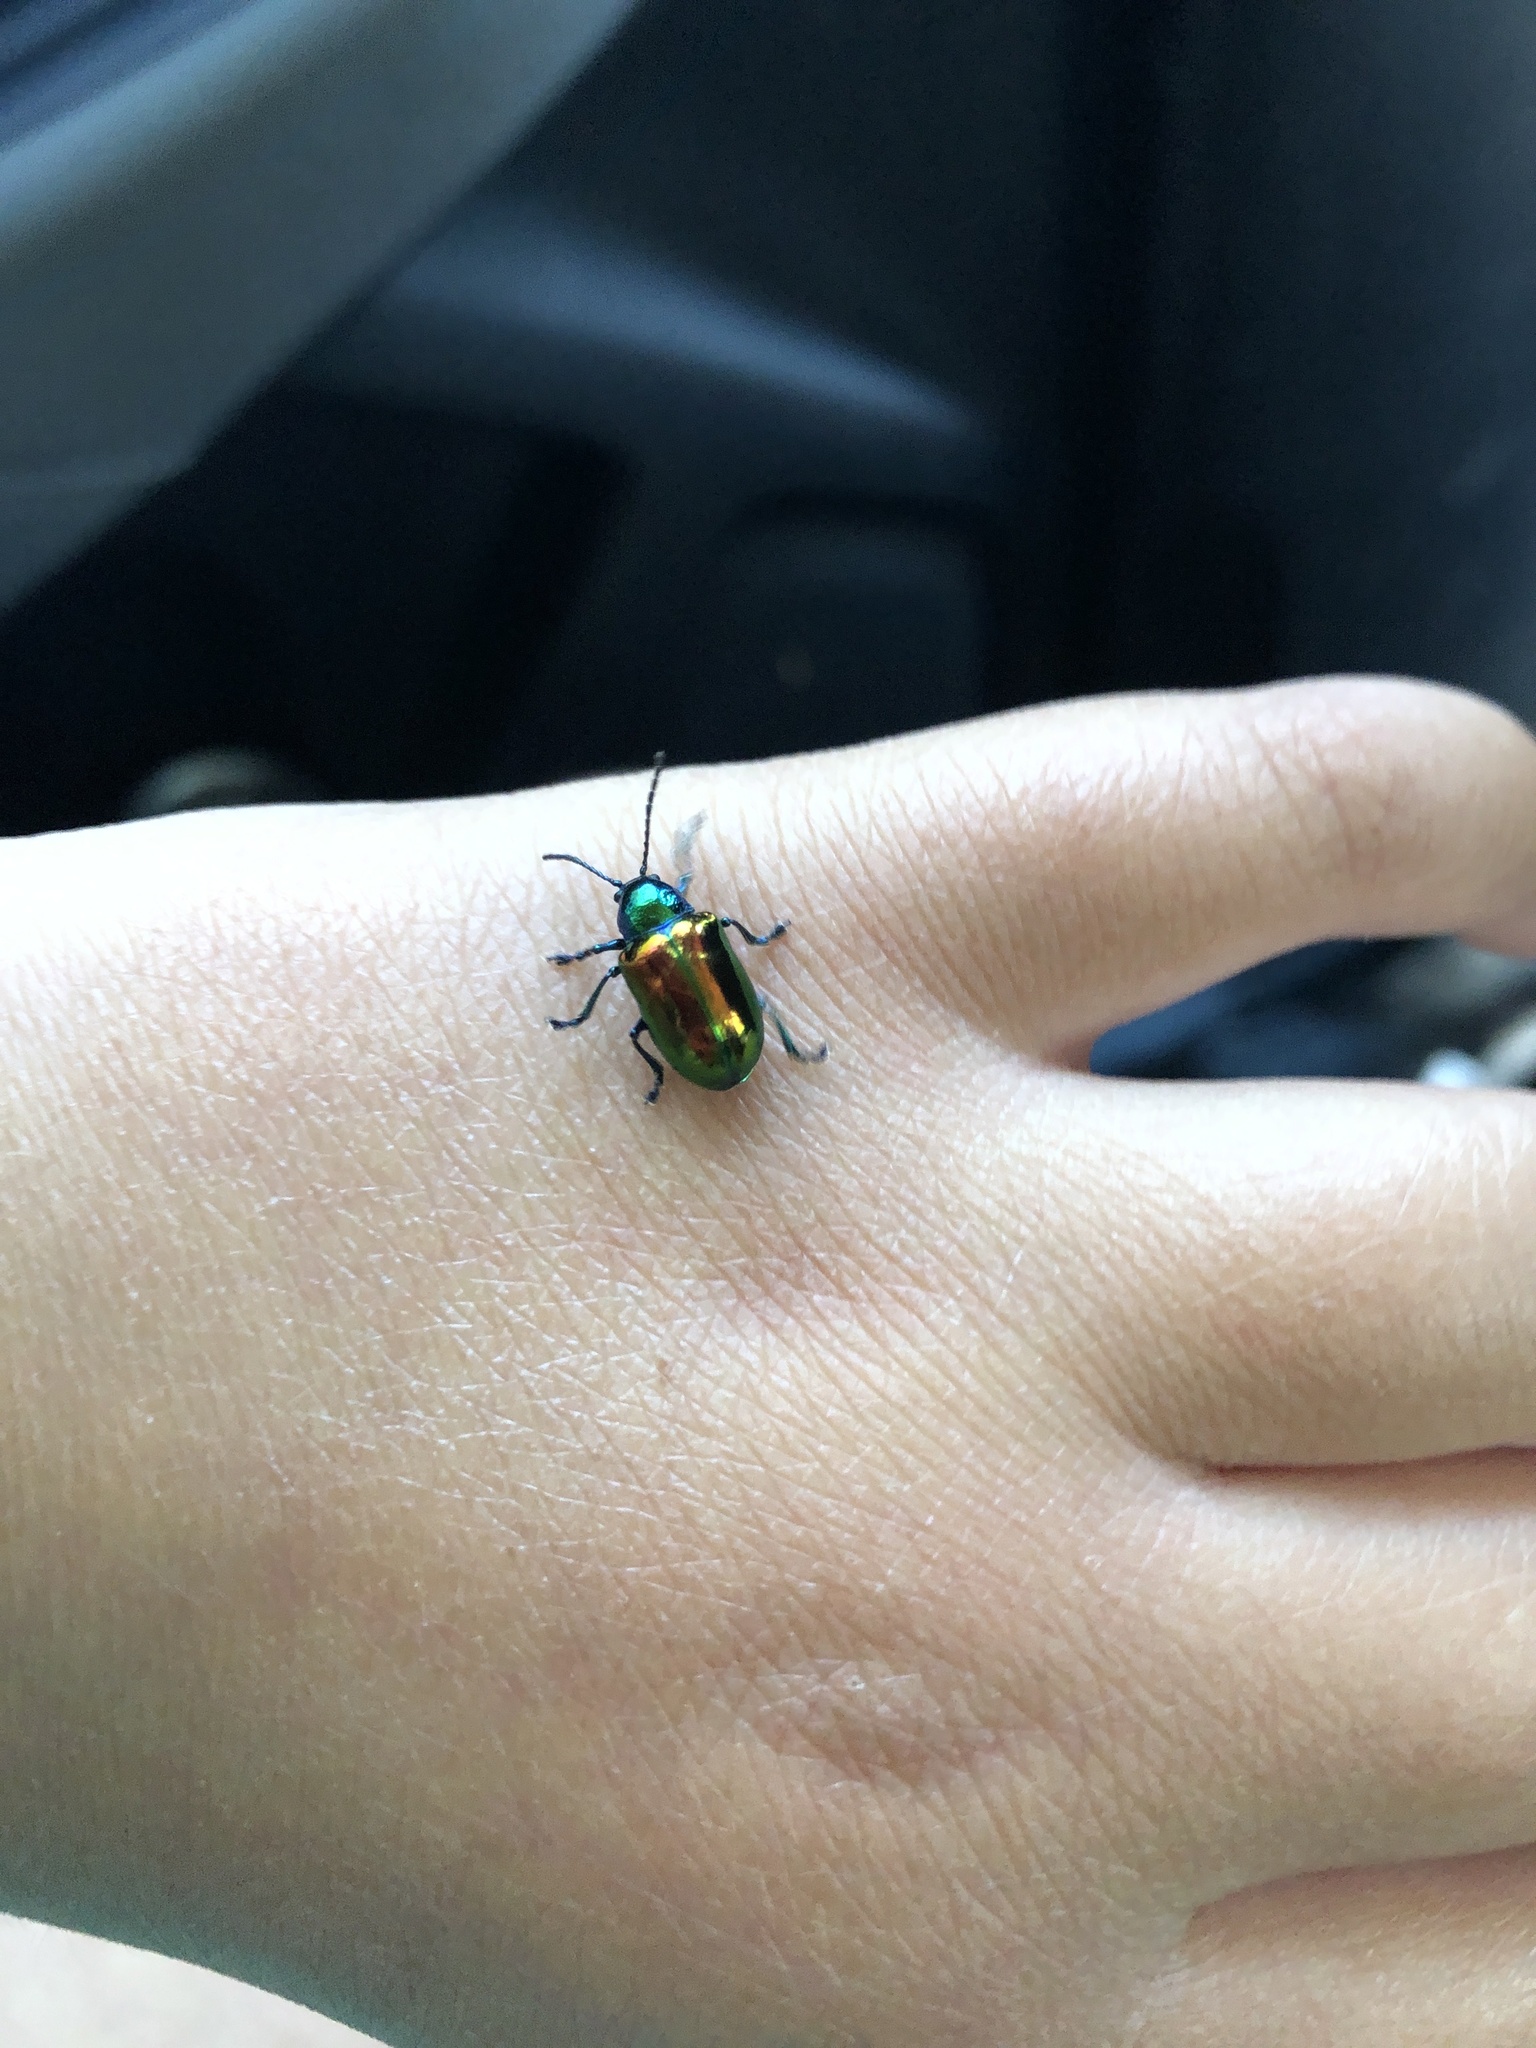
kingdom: Animalia
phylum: Arthropoda
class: Insecta
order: Coleoptera
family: Chrysomelidae
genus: Chrysochus
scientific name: Chrysochus auratus
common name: Dogbane leaf beetle
